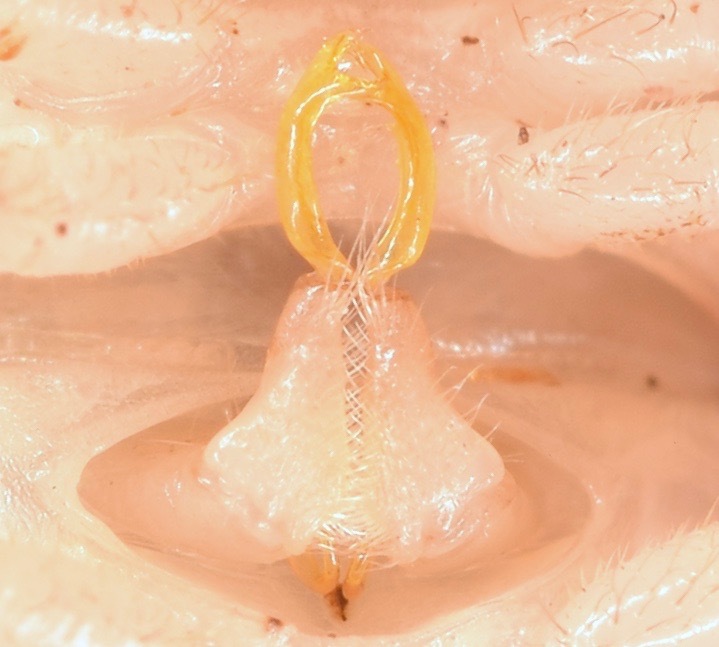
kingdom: Animalia
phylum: Arthropoda
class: Diplopoda
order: Polydesmida
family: Xystodesmidae
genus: Cherokia
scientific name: Cherokia georgiana
